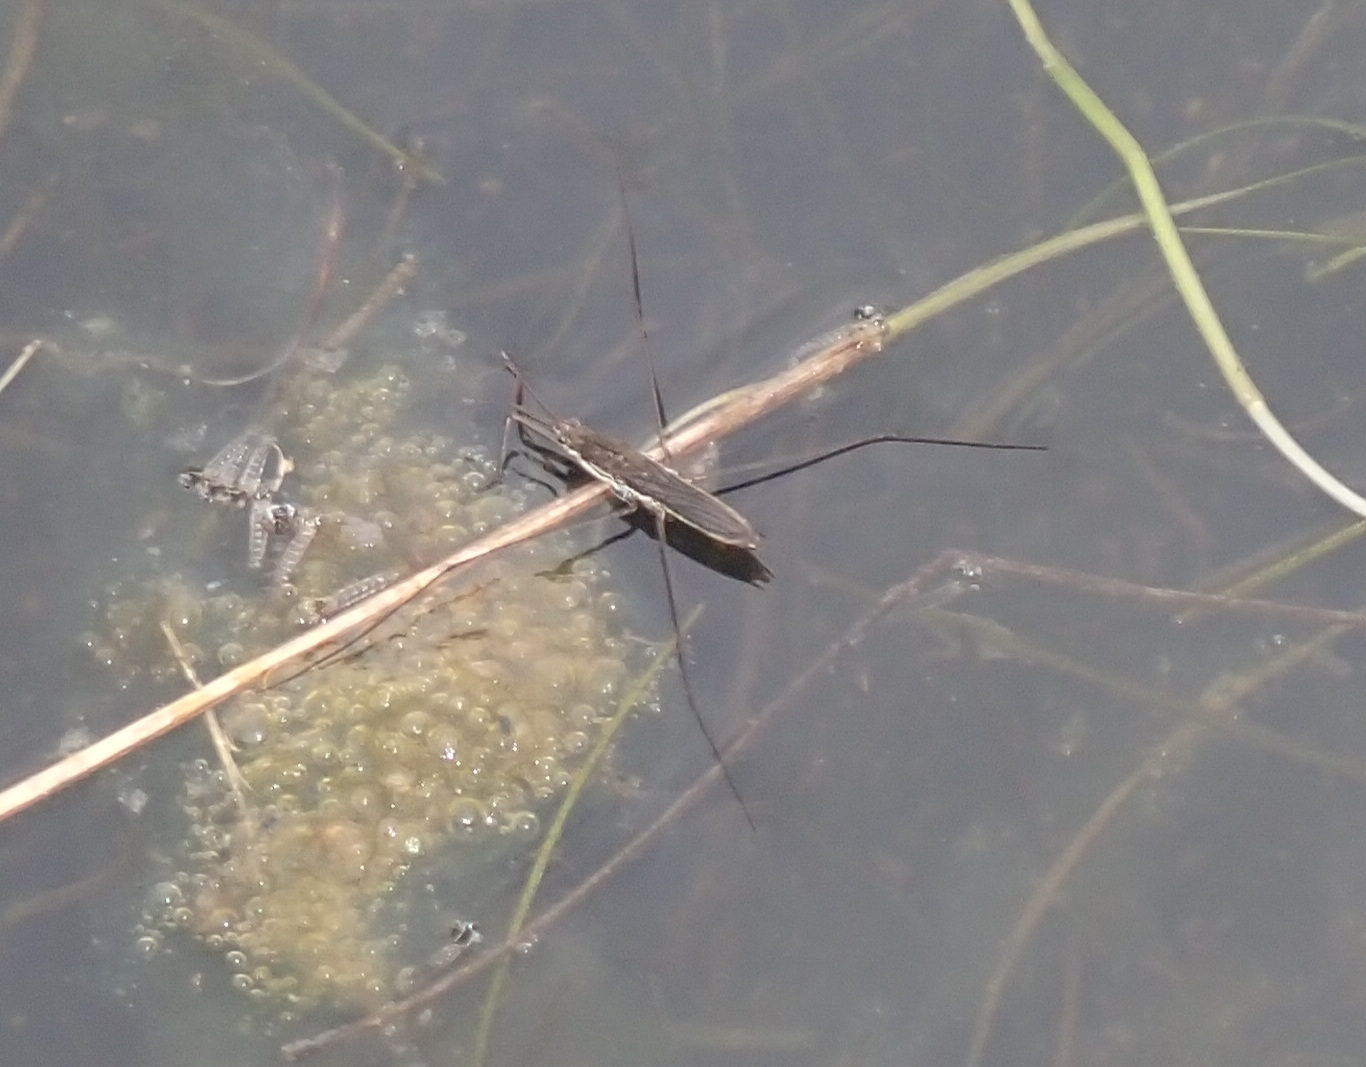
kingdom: Animalia
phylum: Arthropoda
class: Insecta
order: Hemiptera
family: Gerridae
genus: Aquarius
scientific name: Aquarius paludum
